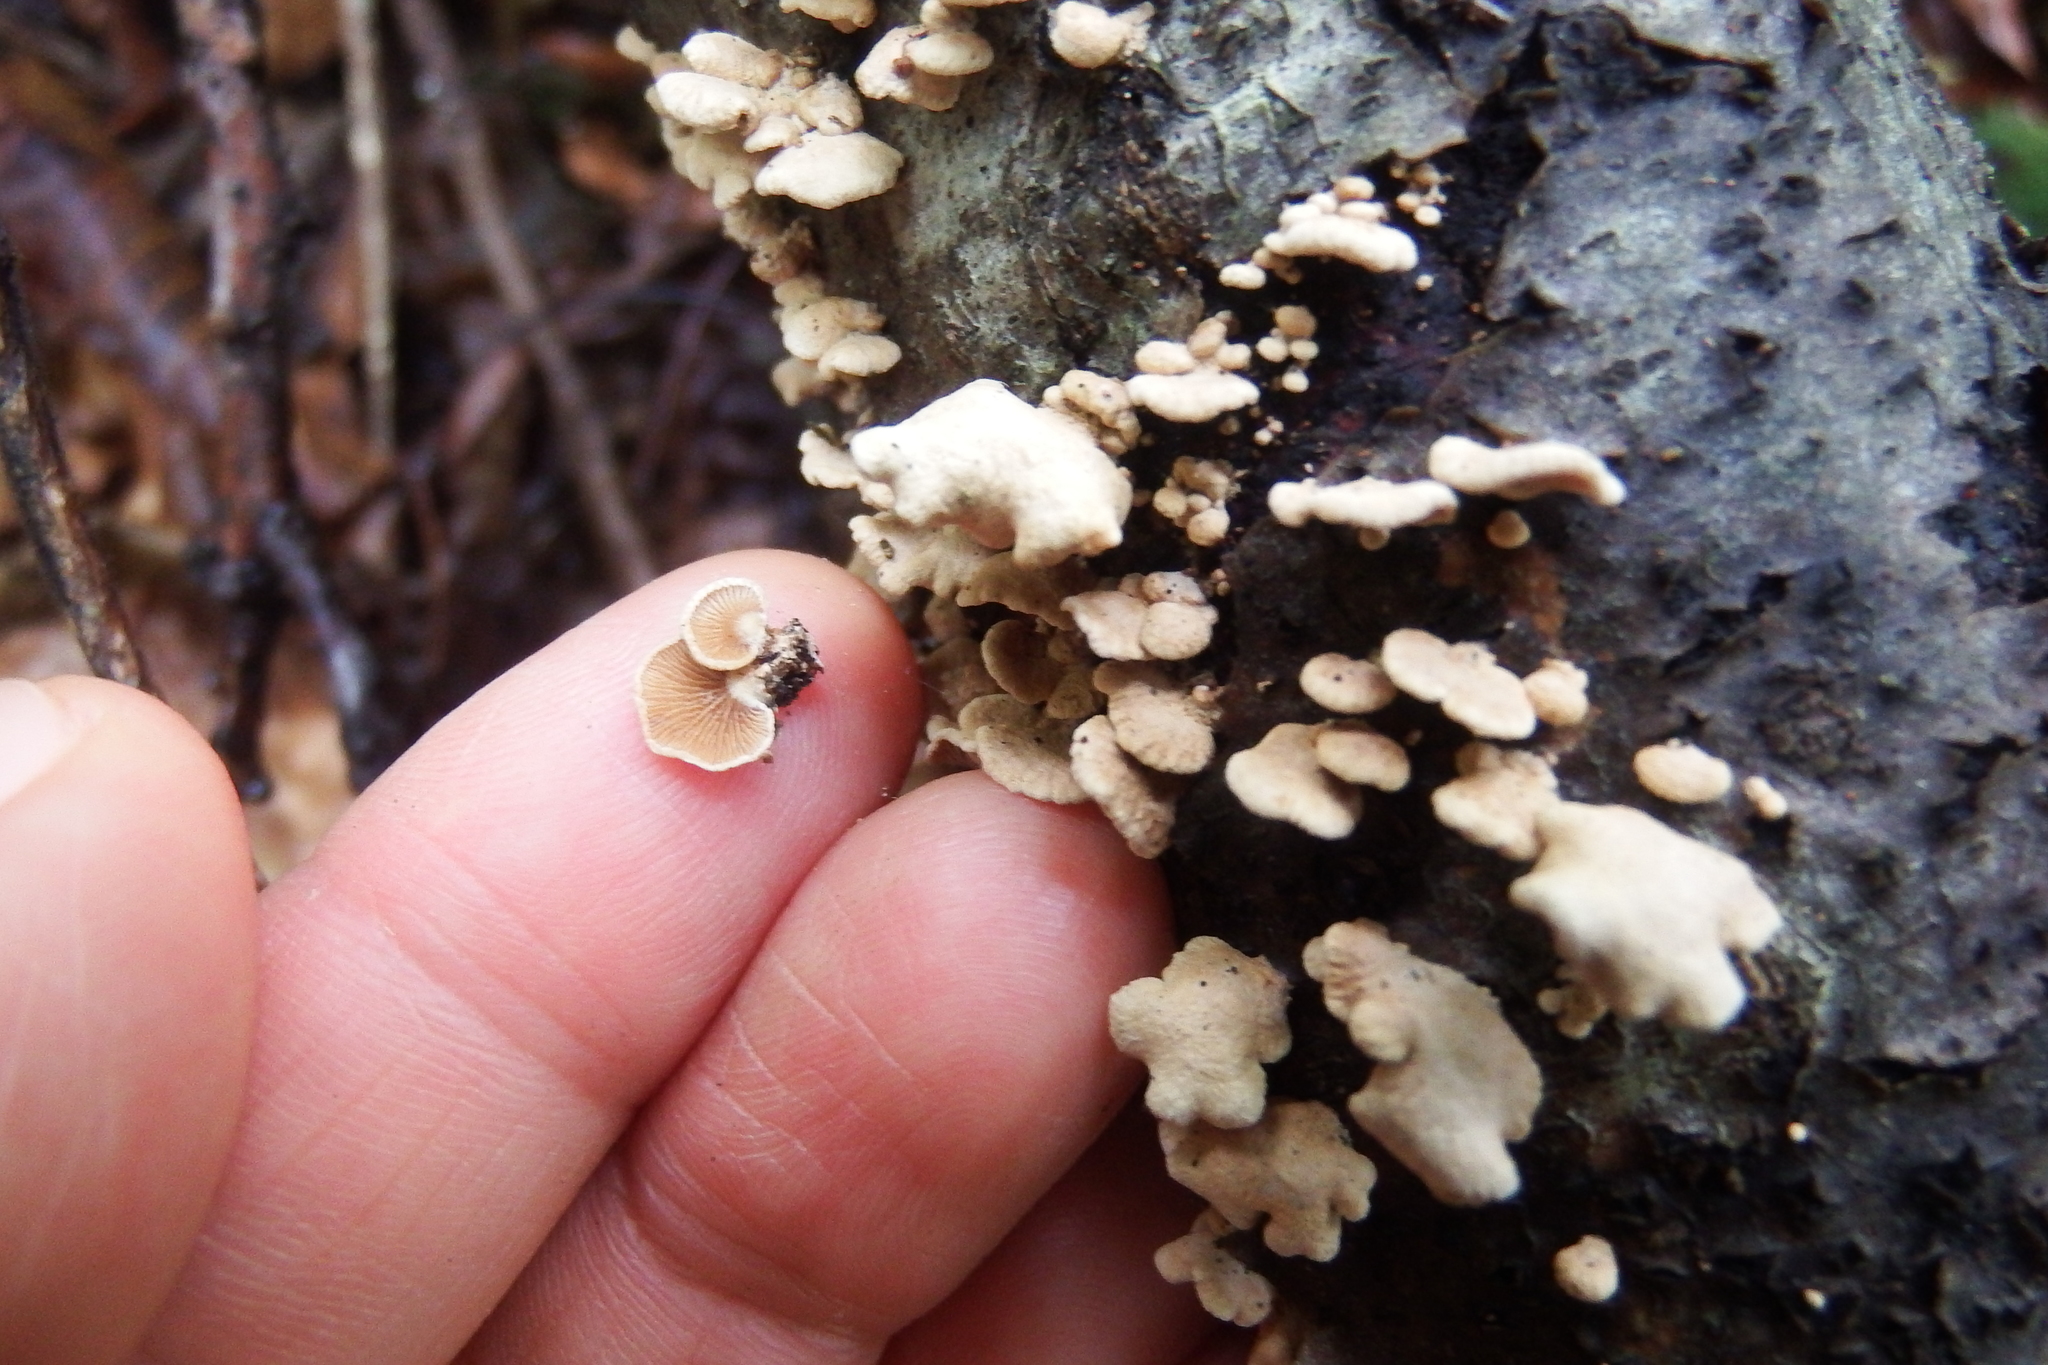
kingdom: Fungi
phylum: Basidiomycota
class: Agaricomycetes
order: Agaricales
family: Mycenaceae
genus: Panellus
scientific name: Panellus stipticus
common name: Bitter oysterling
